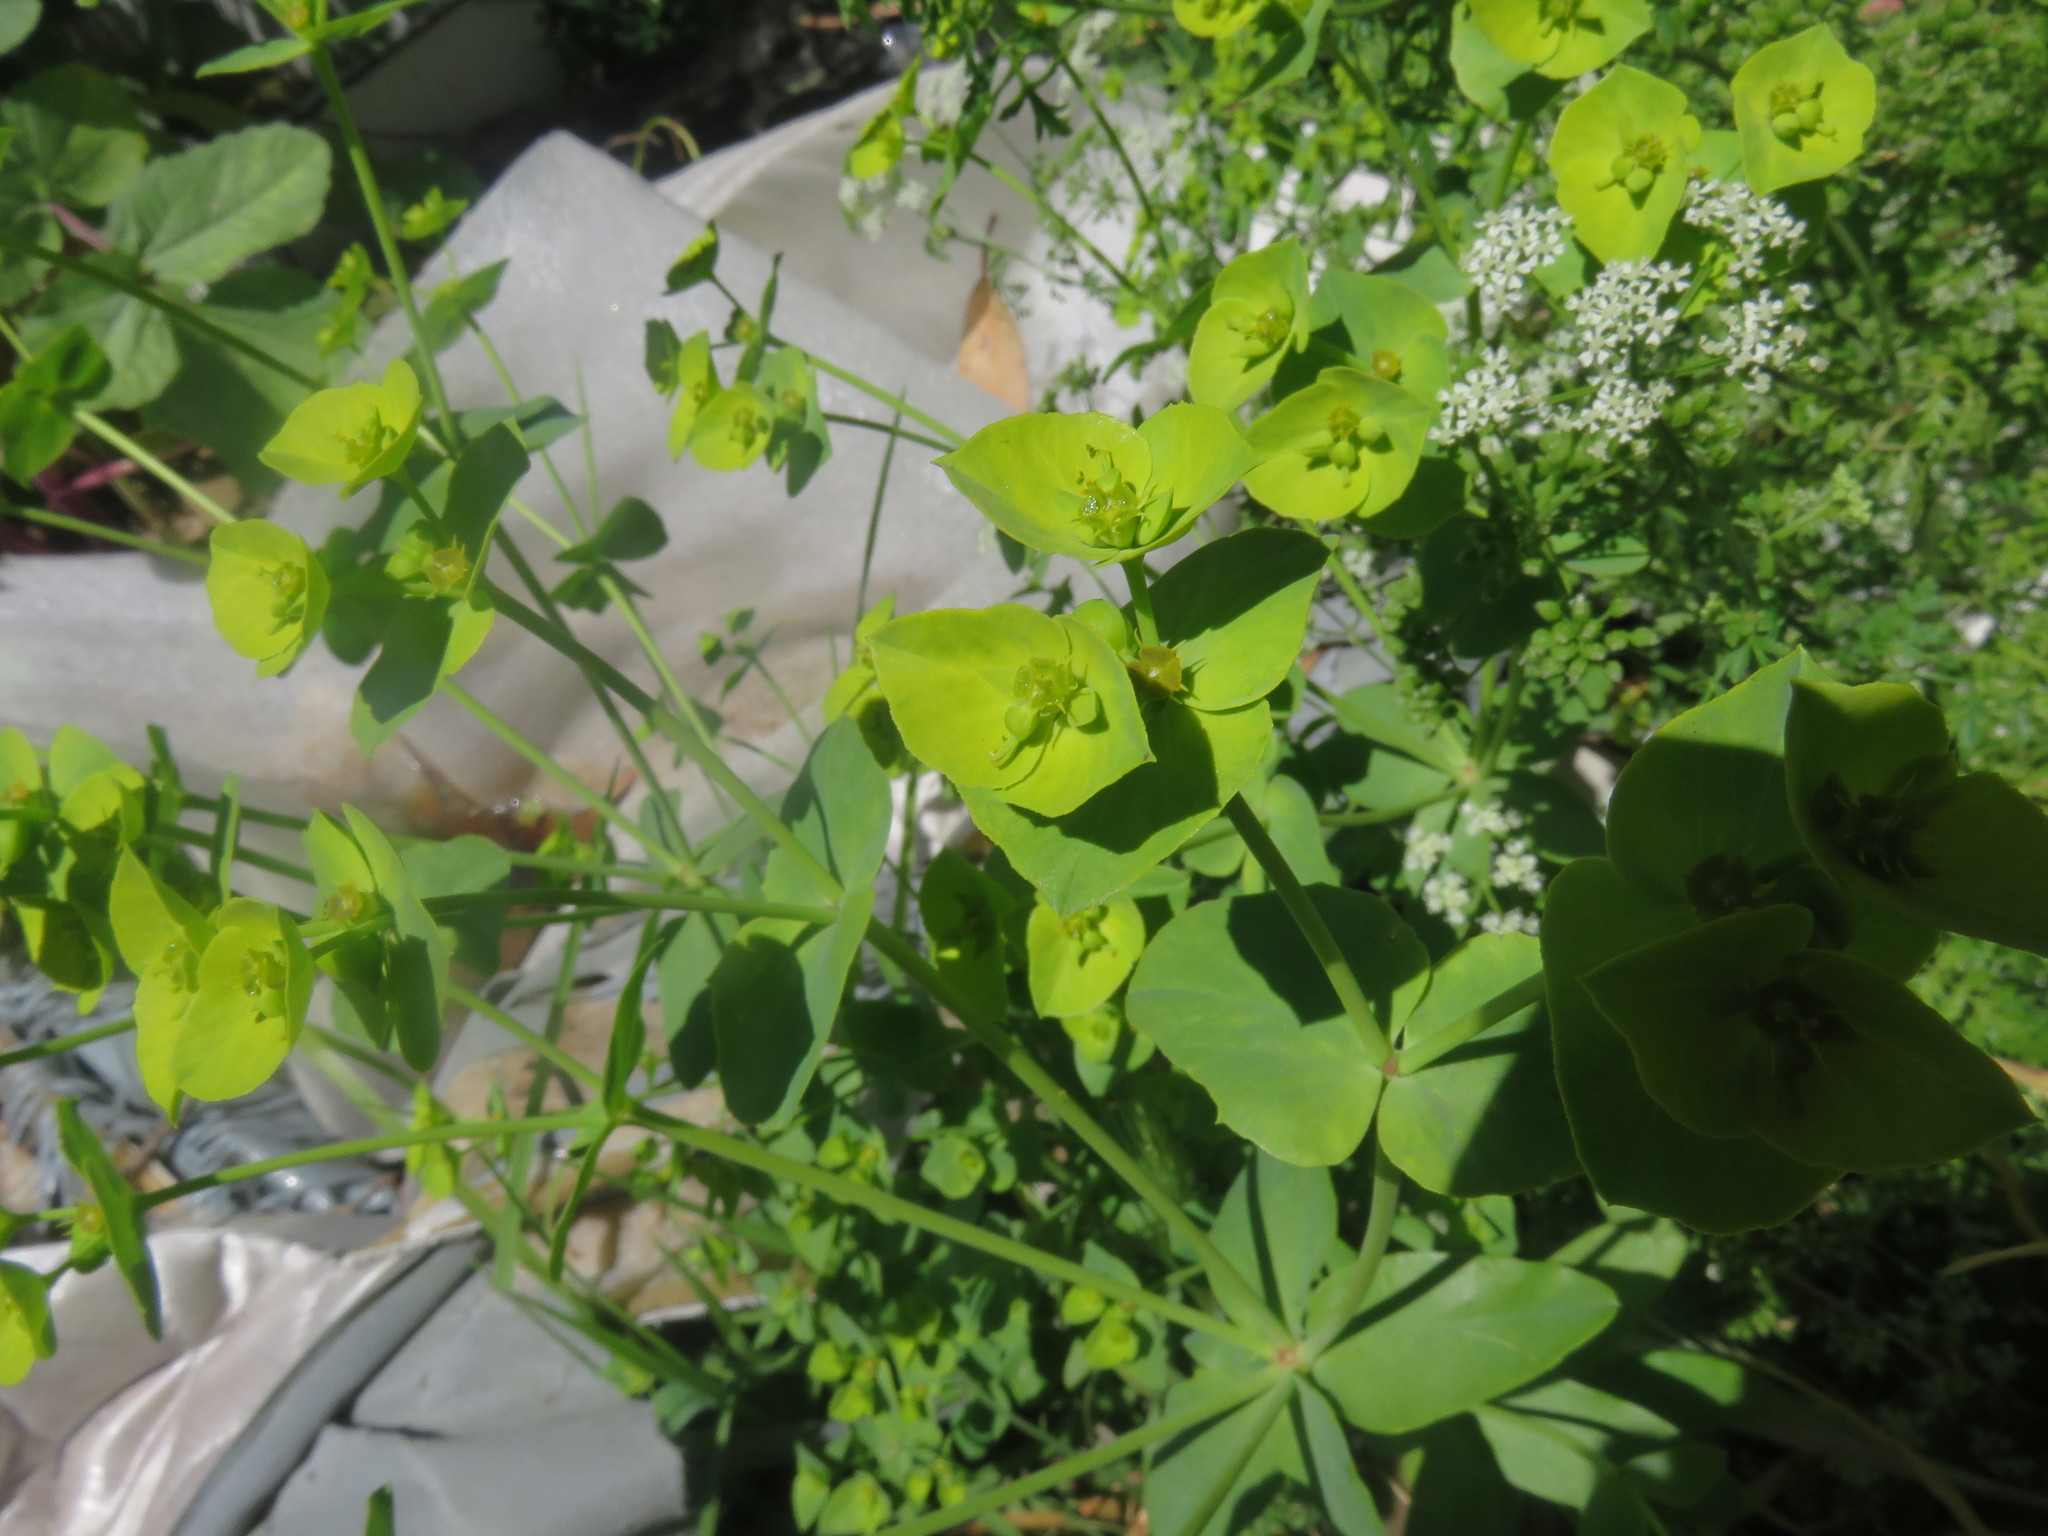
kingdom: Plantae
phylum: Tracheophyta
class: Magnoliopsida
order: Malpighiales
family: Euphorbiaceae
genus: Euphorbia
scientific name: Euphorbia terracina
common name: Geraldton carnation weed
